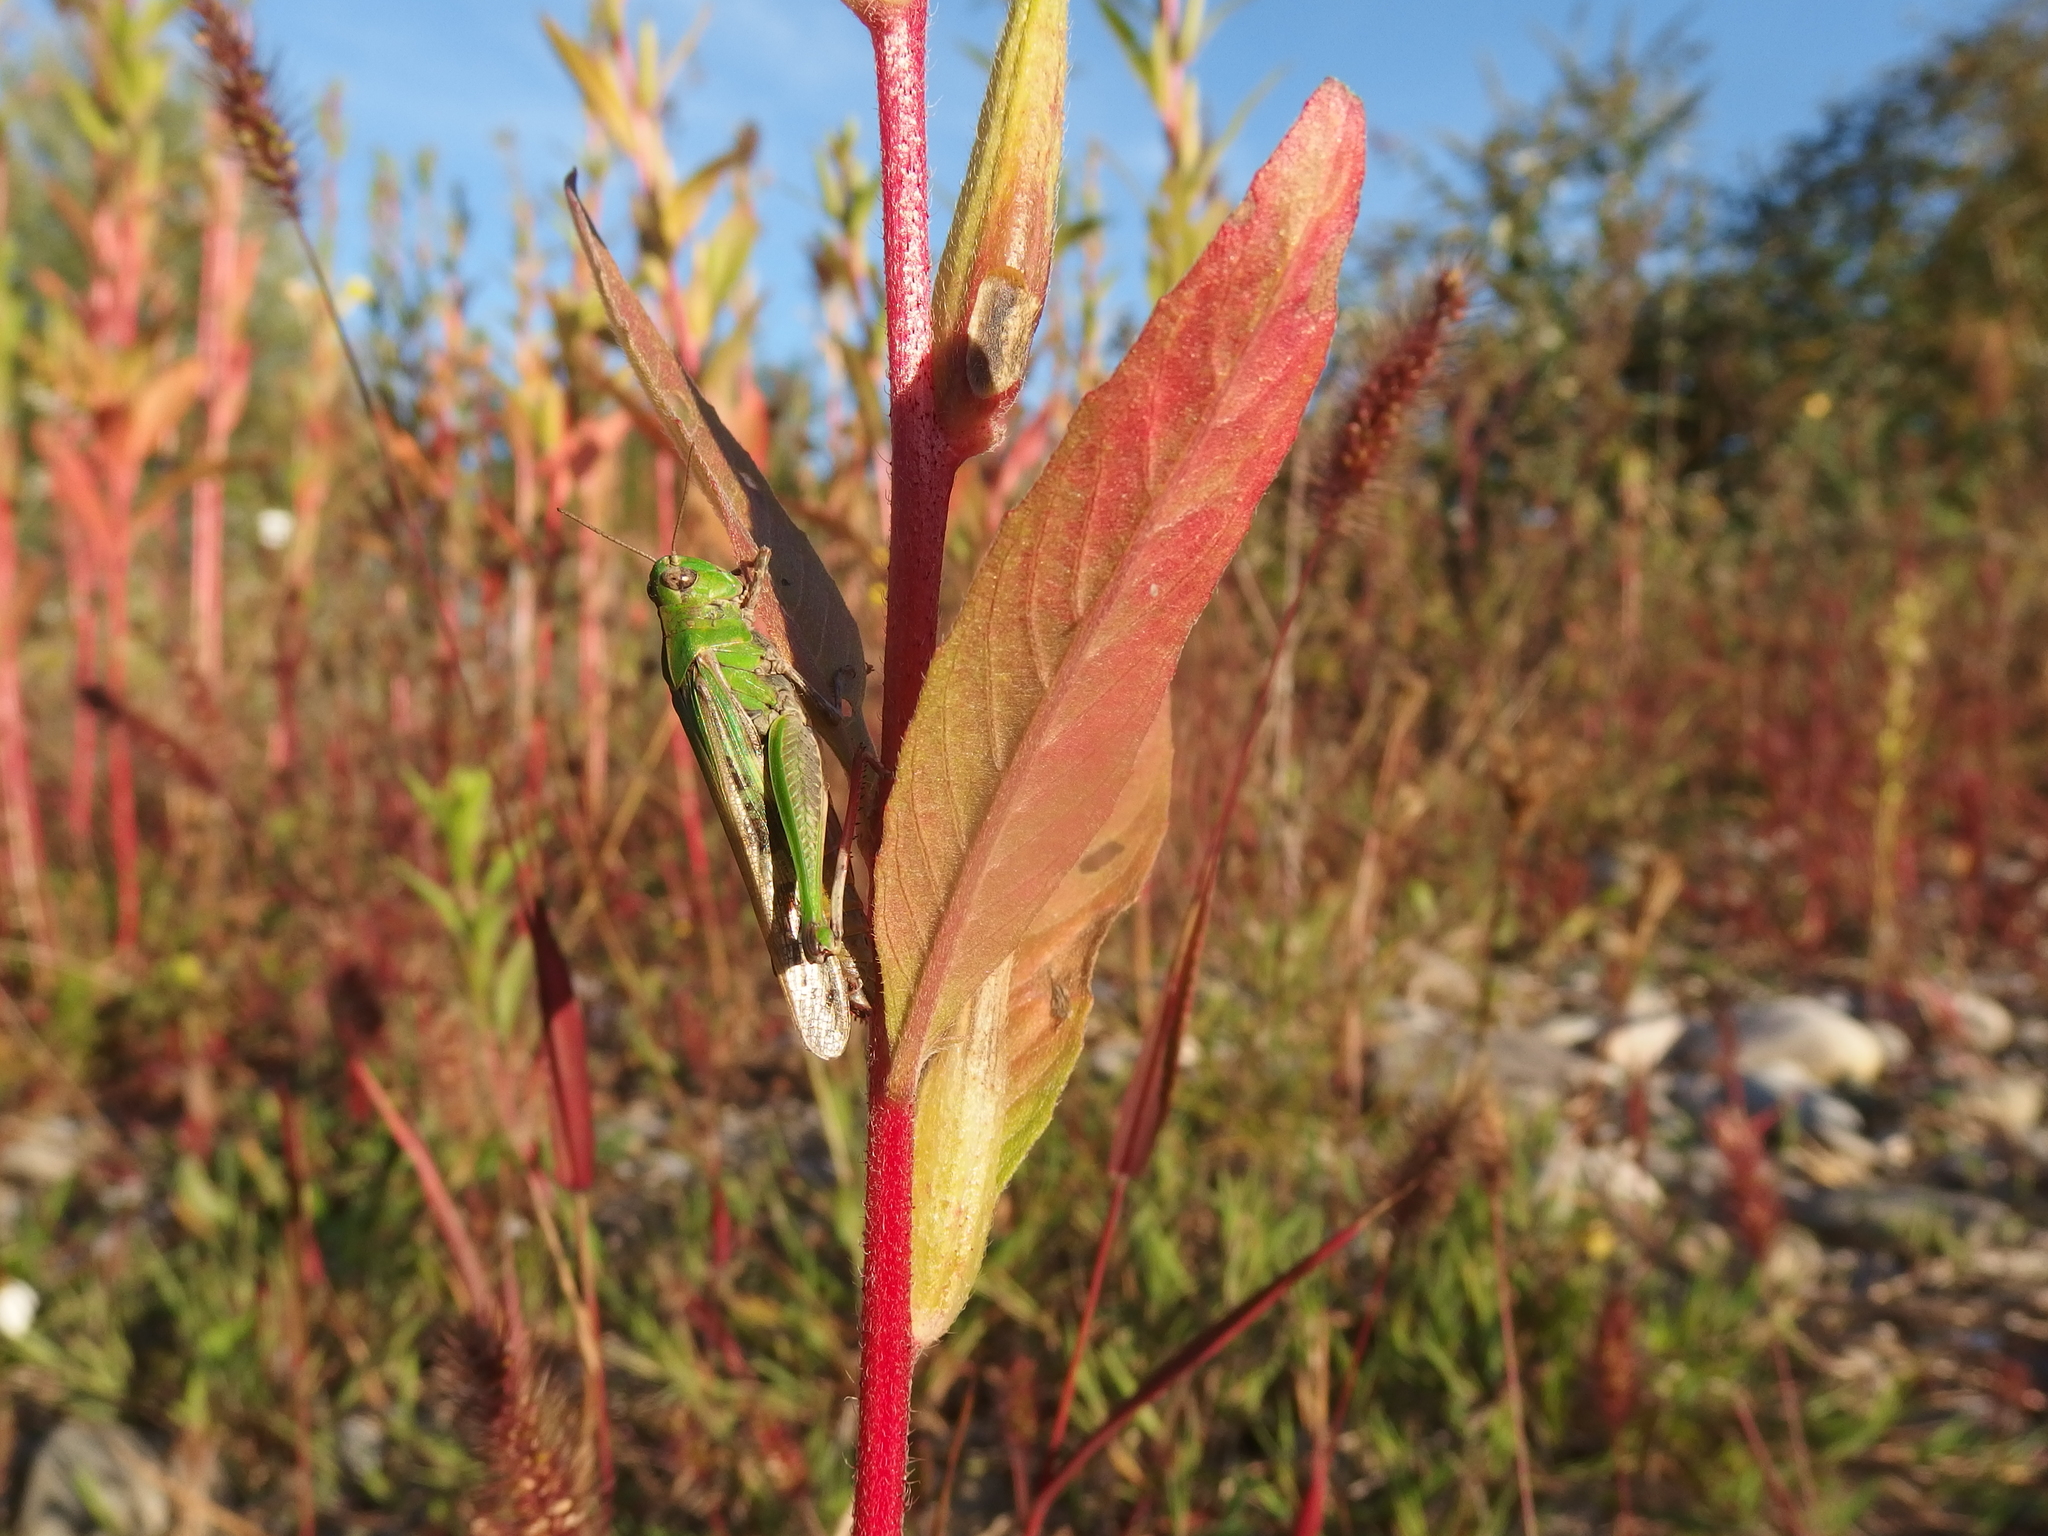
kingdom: Animalia
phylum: Arthropoda
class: Insecta
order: Orthoptera
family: Acrididae
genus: Aiolopus
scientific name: Aiolopus thalassinus
